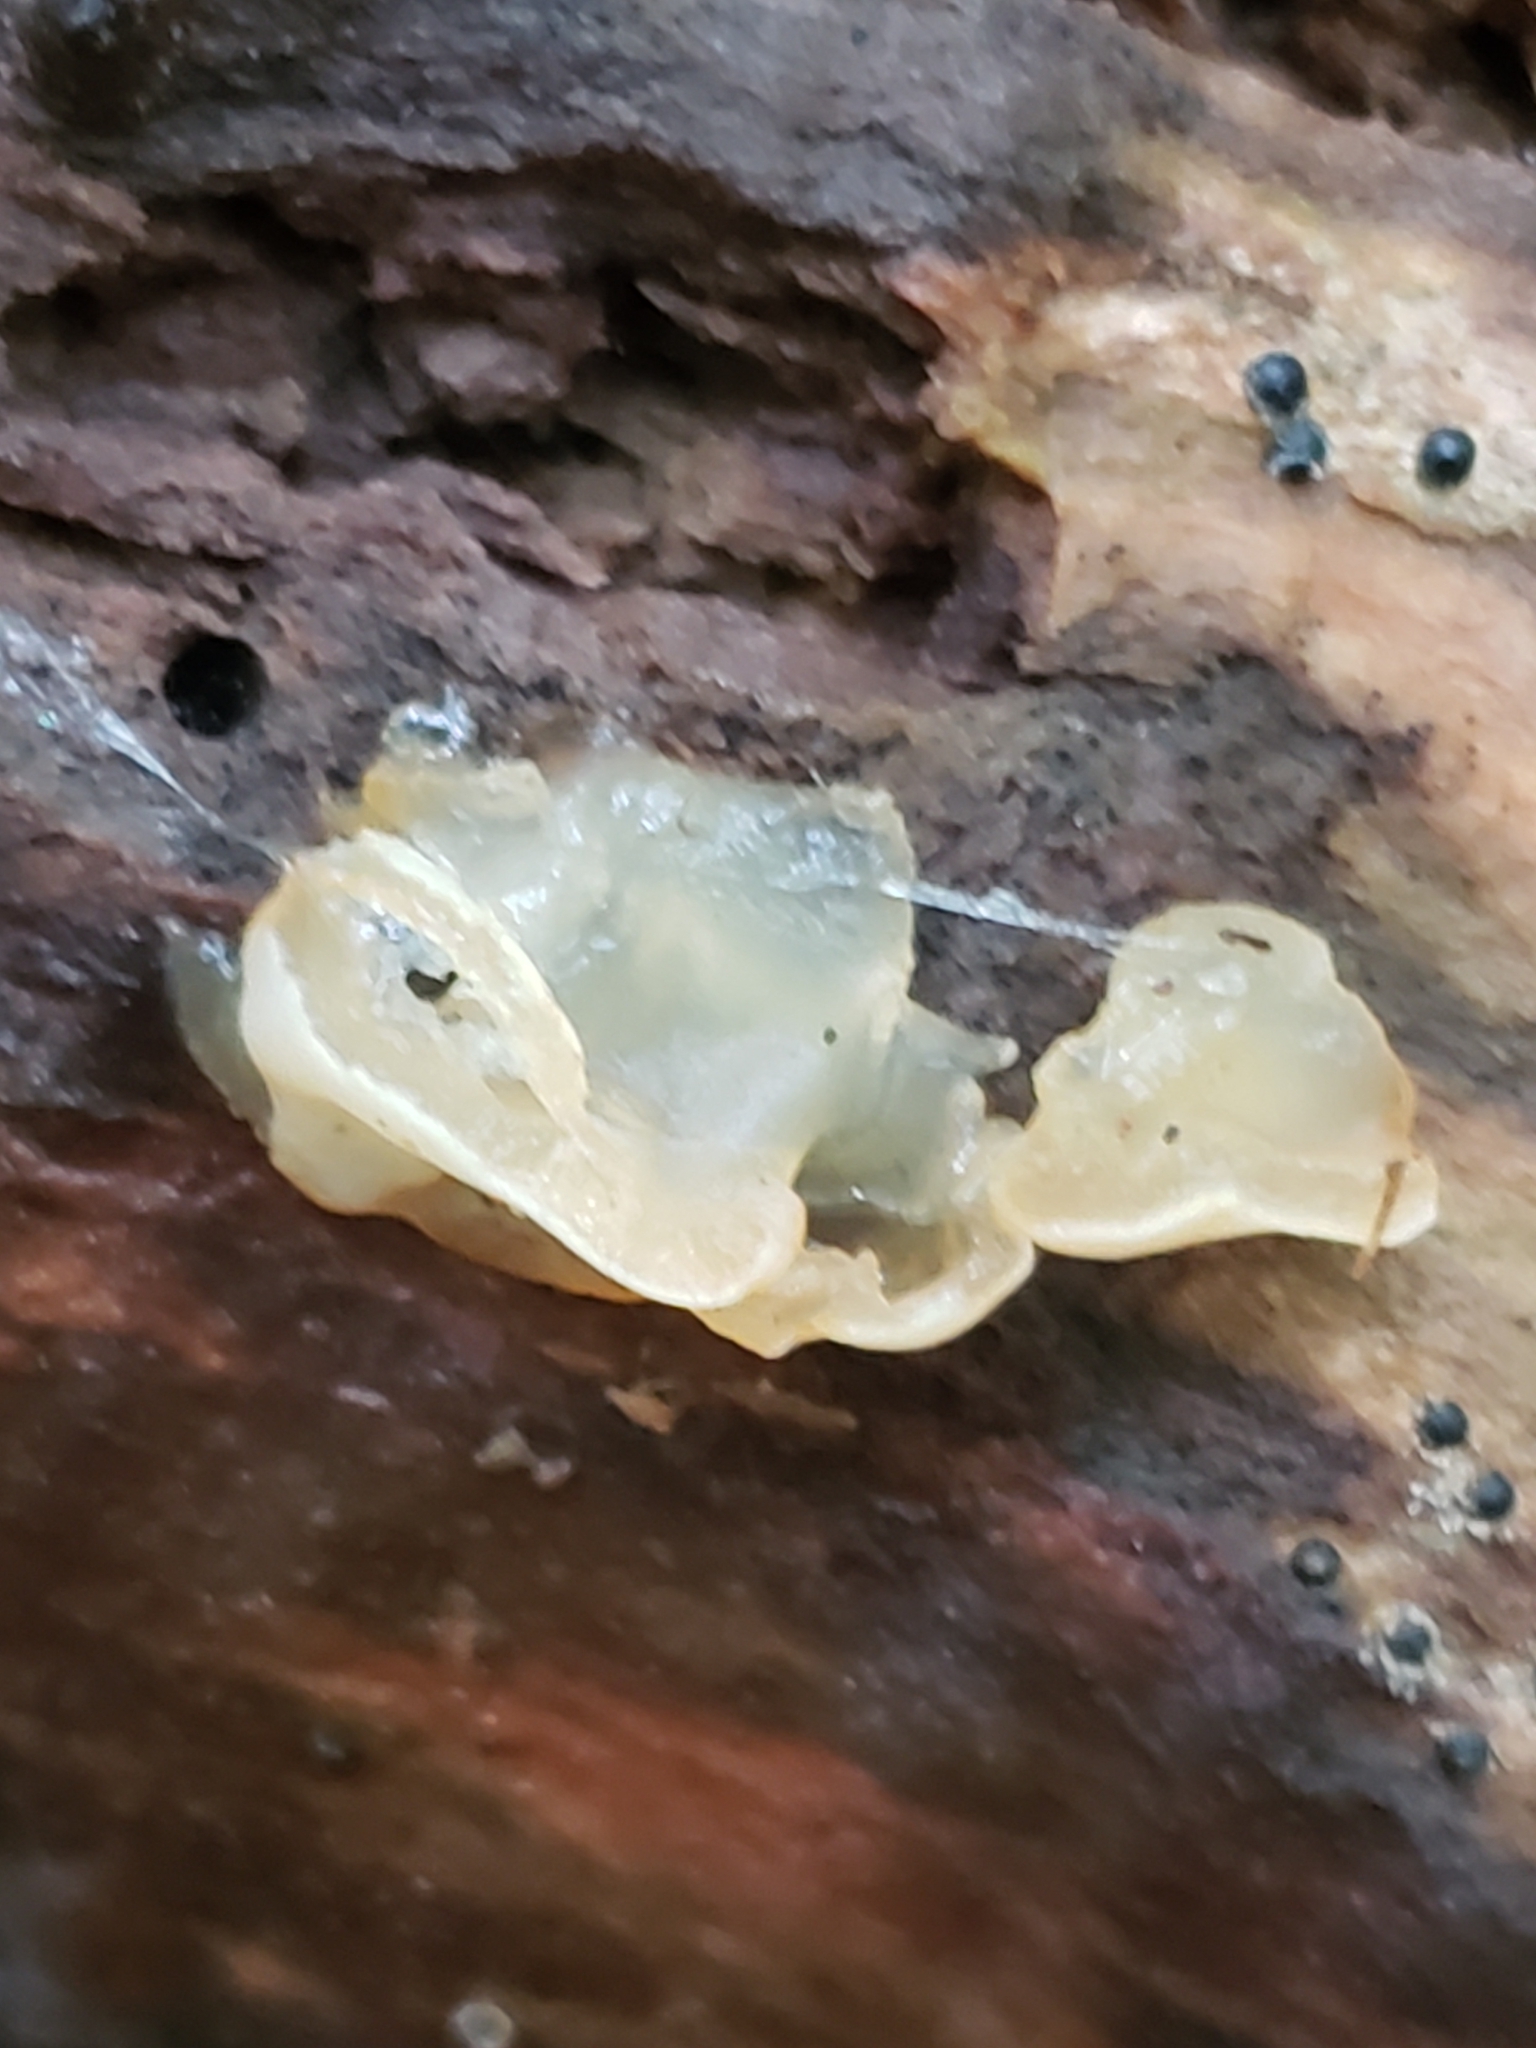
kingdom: Fungi
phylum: Basidiomycota
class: Agaricomycetes
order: Auriculariales
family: Hyaloriaceae
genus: Myxarium
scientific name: Myxarium nucleatum
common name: Crystal brain fungus
